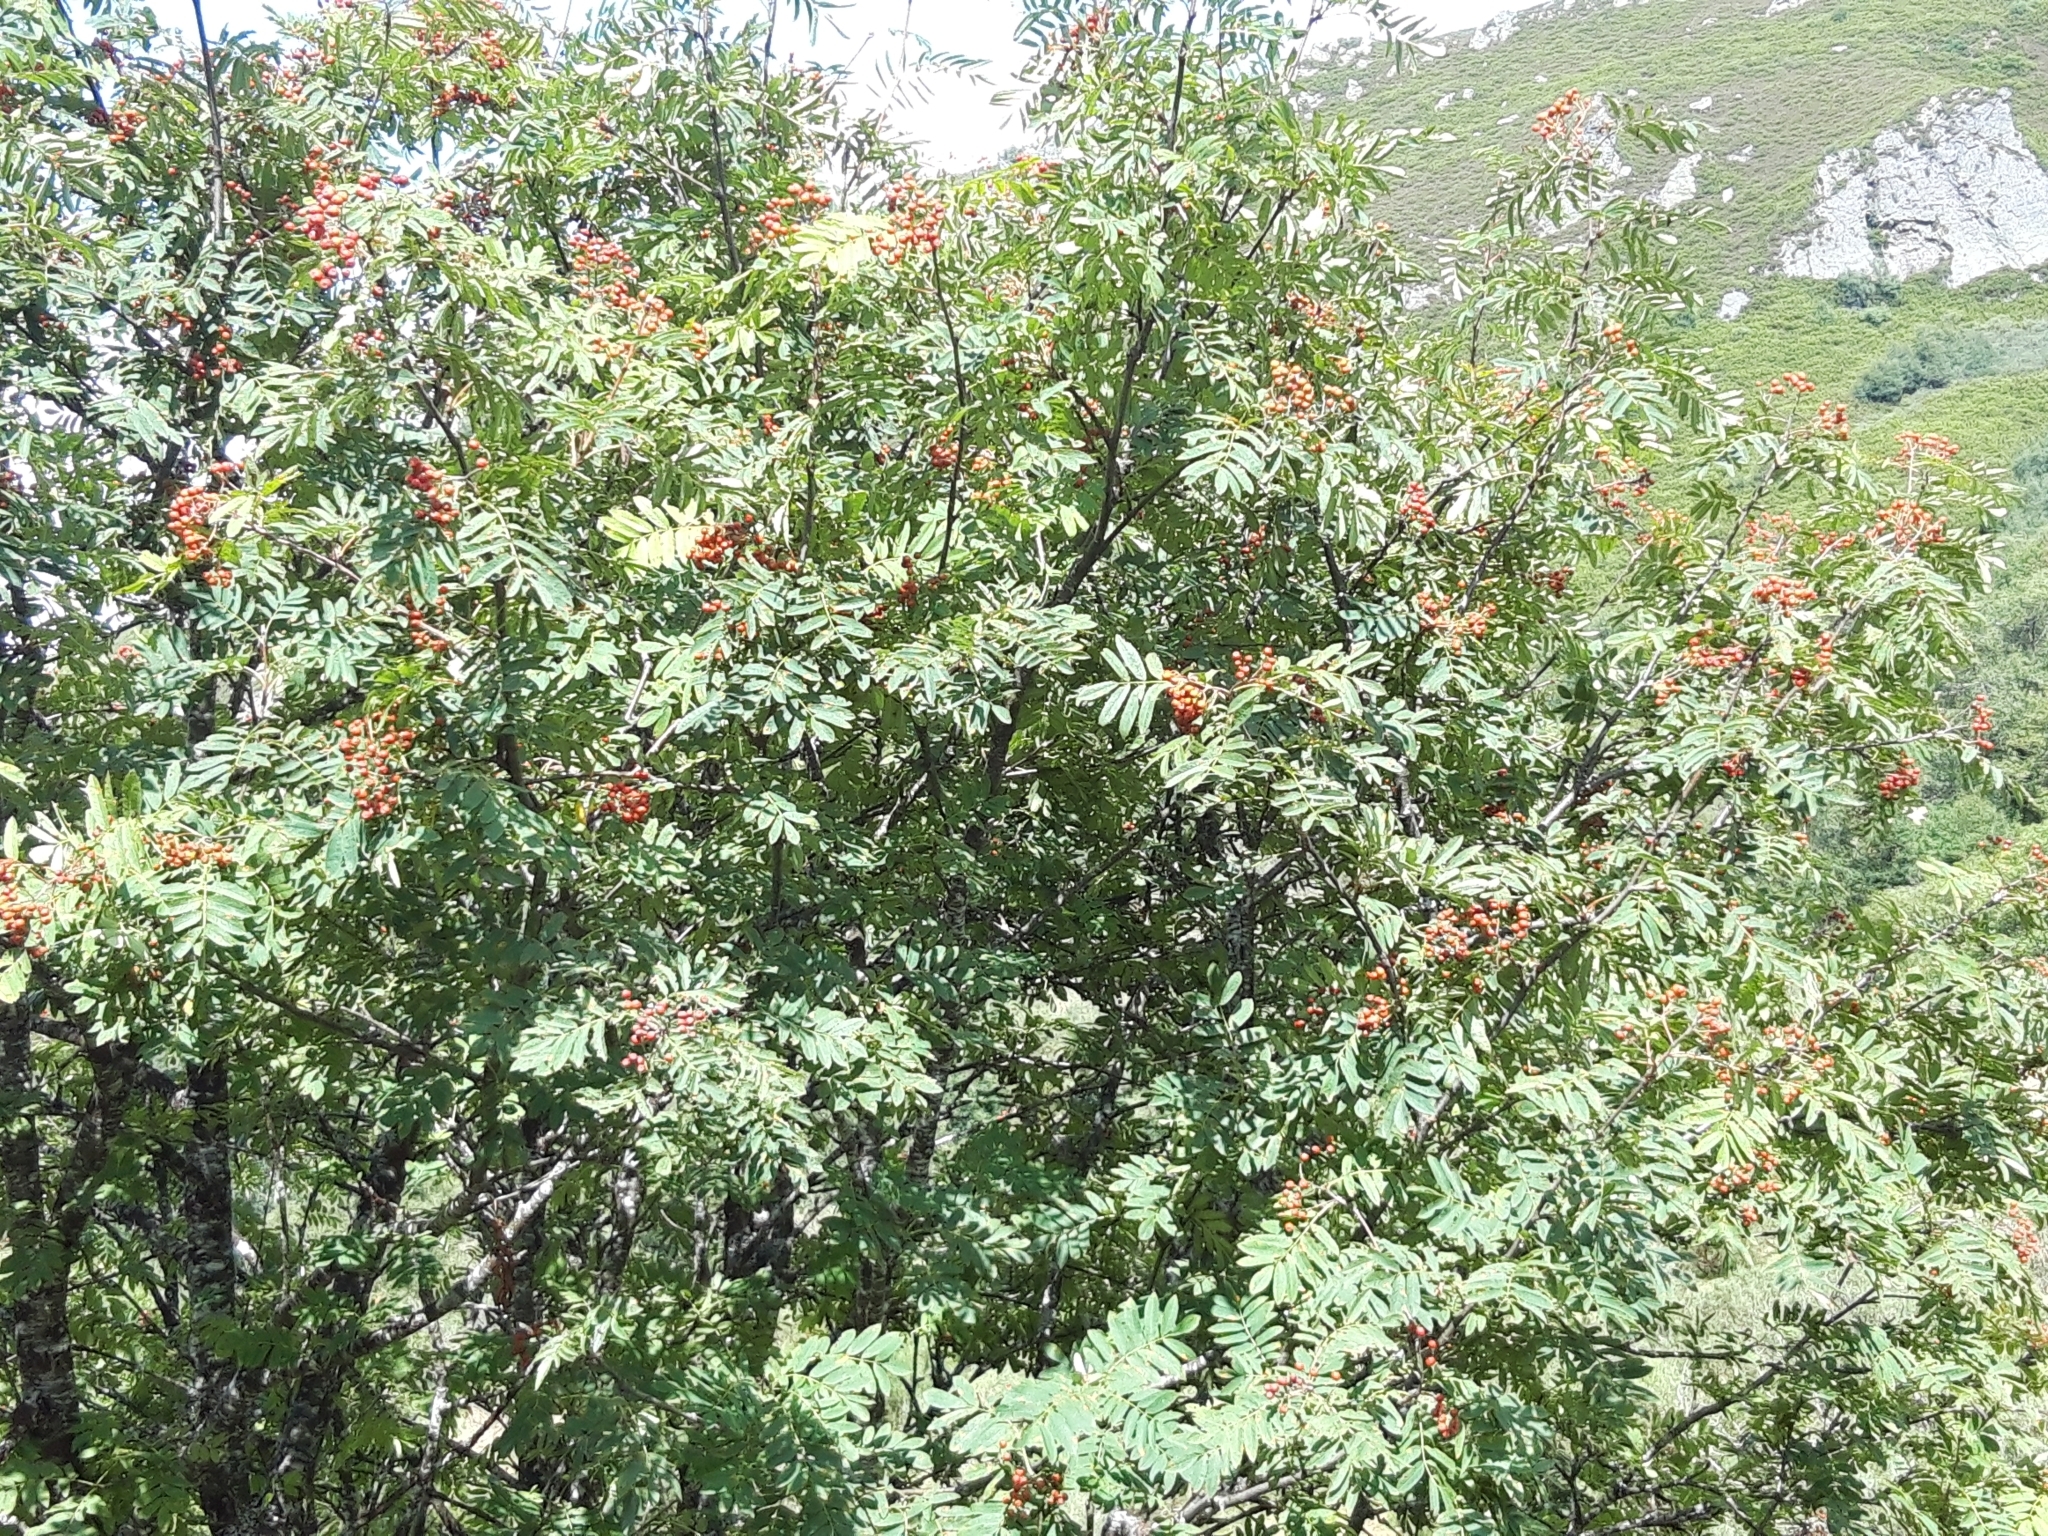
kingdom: Plantae
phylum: Tracheophyta
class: Magnoliopsida
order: Rosales
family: Rosaceae
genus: Sorbus
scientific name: Sorbus aucuparia
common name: Rowan
